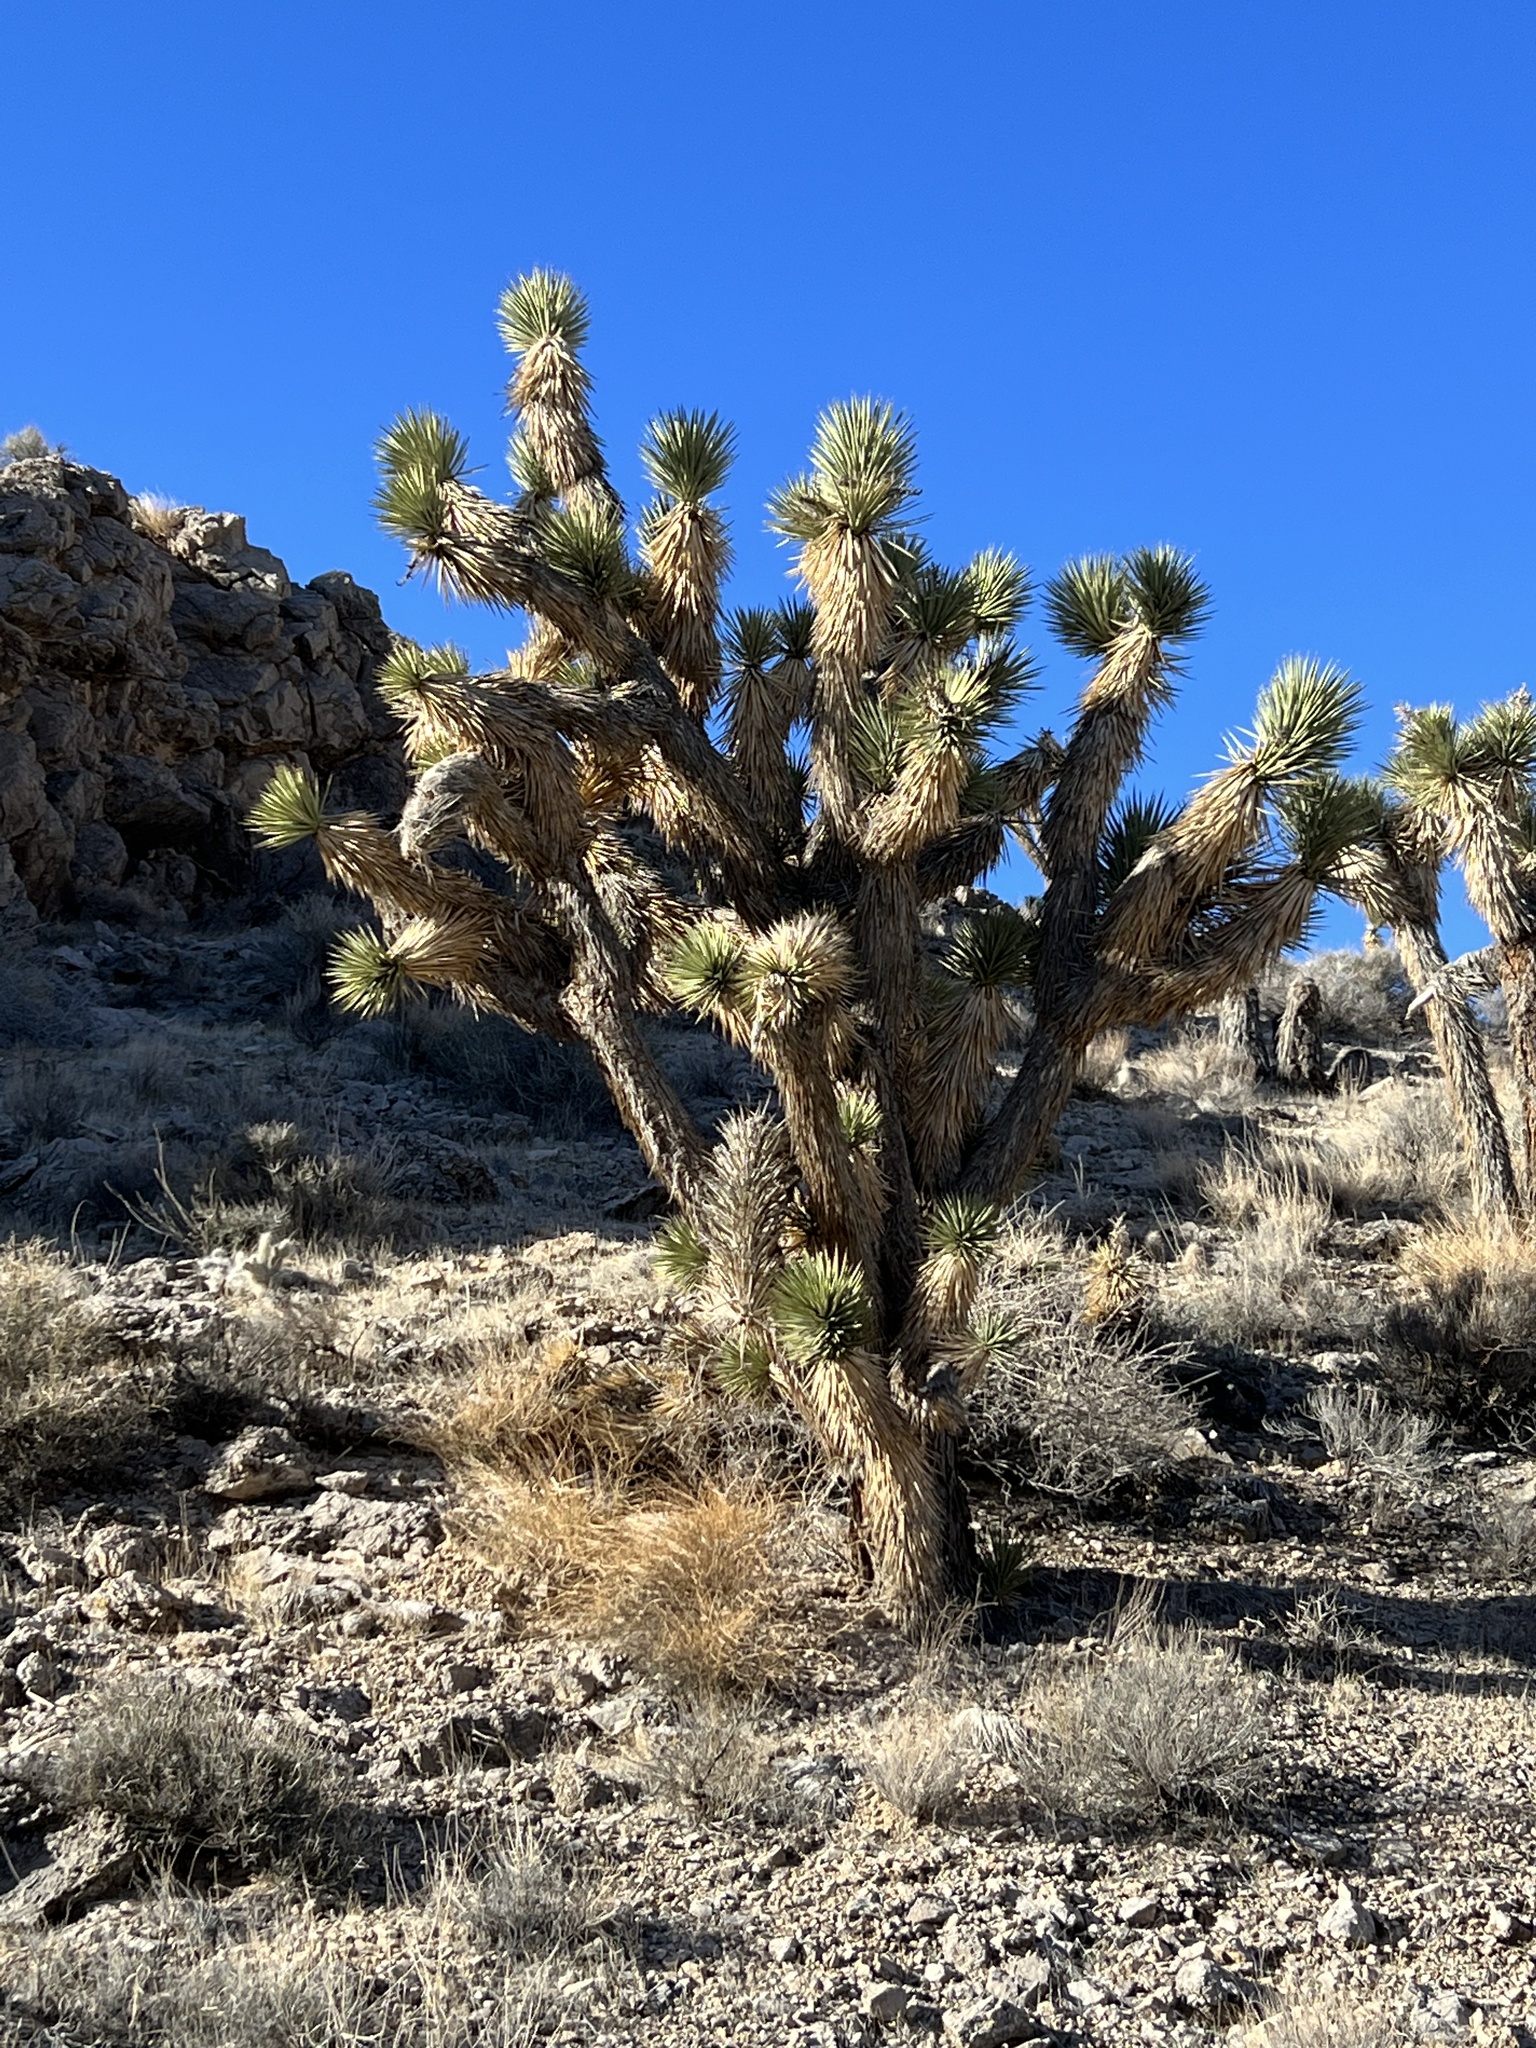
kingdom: Plantae
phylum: Tracheophyta
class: Liliopsida
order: Asparagales
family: Asparagaceae
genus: Yucca
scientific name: Yucca brevifolia
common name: Joshua tree
